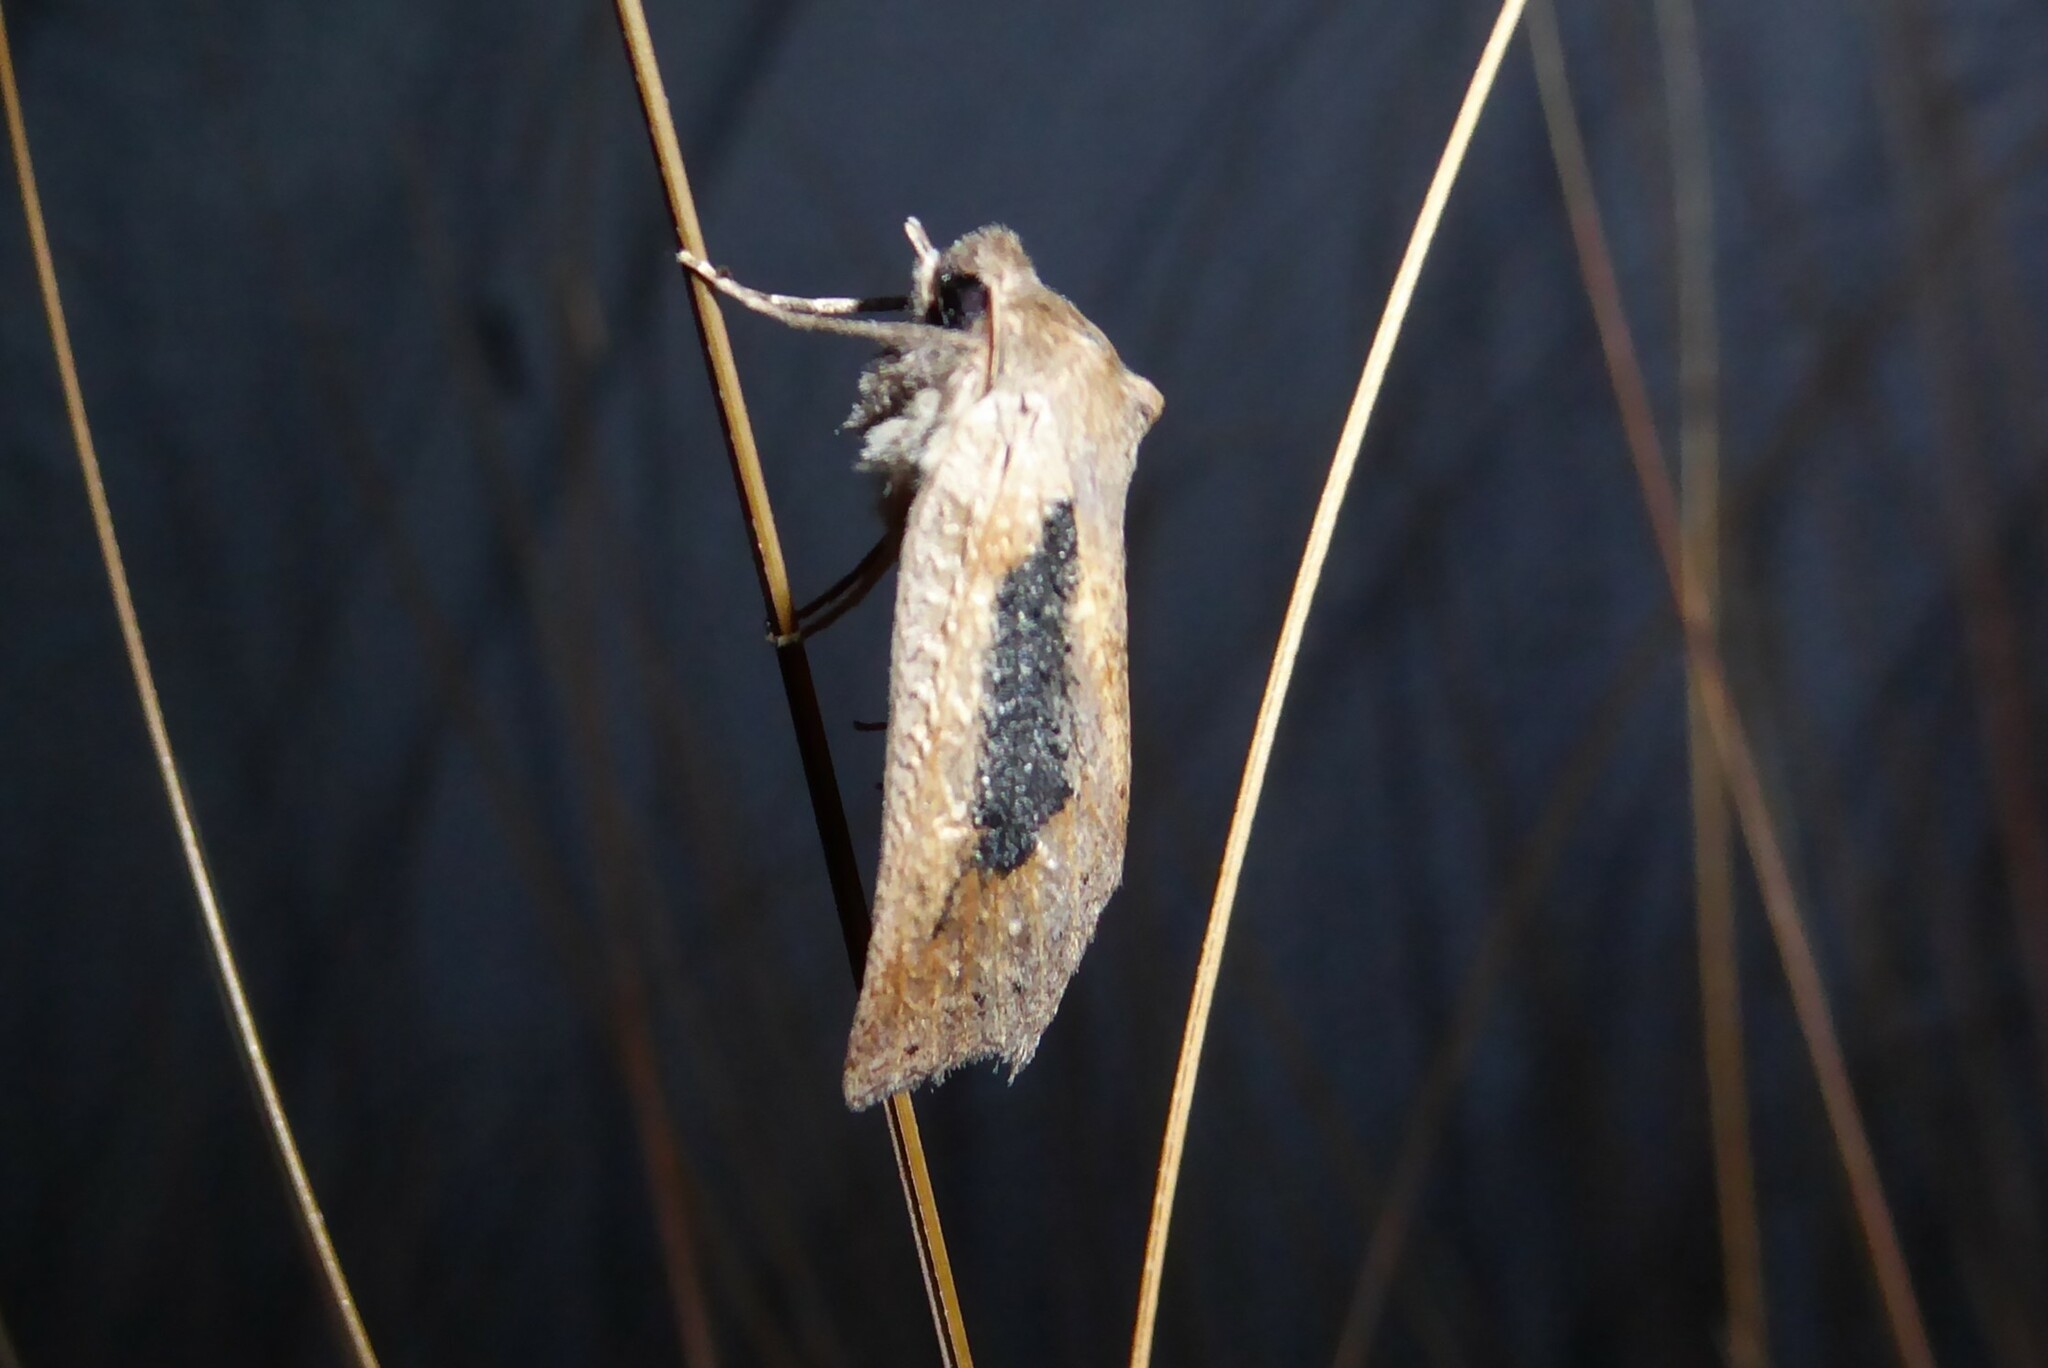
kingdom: Animalia
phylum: Arthropoda
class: Insecta
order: Lepidoptera
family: Geometridae
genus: Declana
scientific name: Declana leptomera
